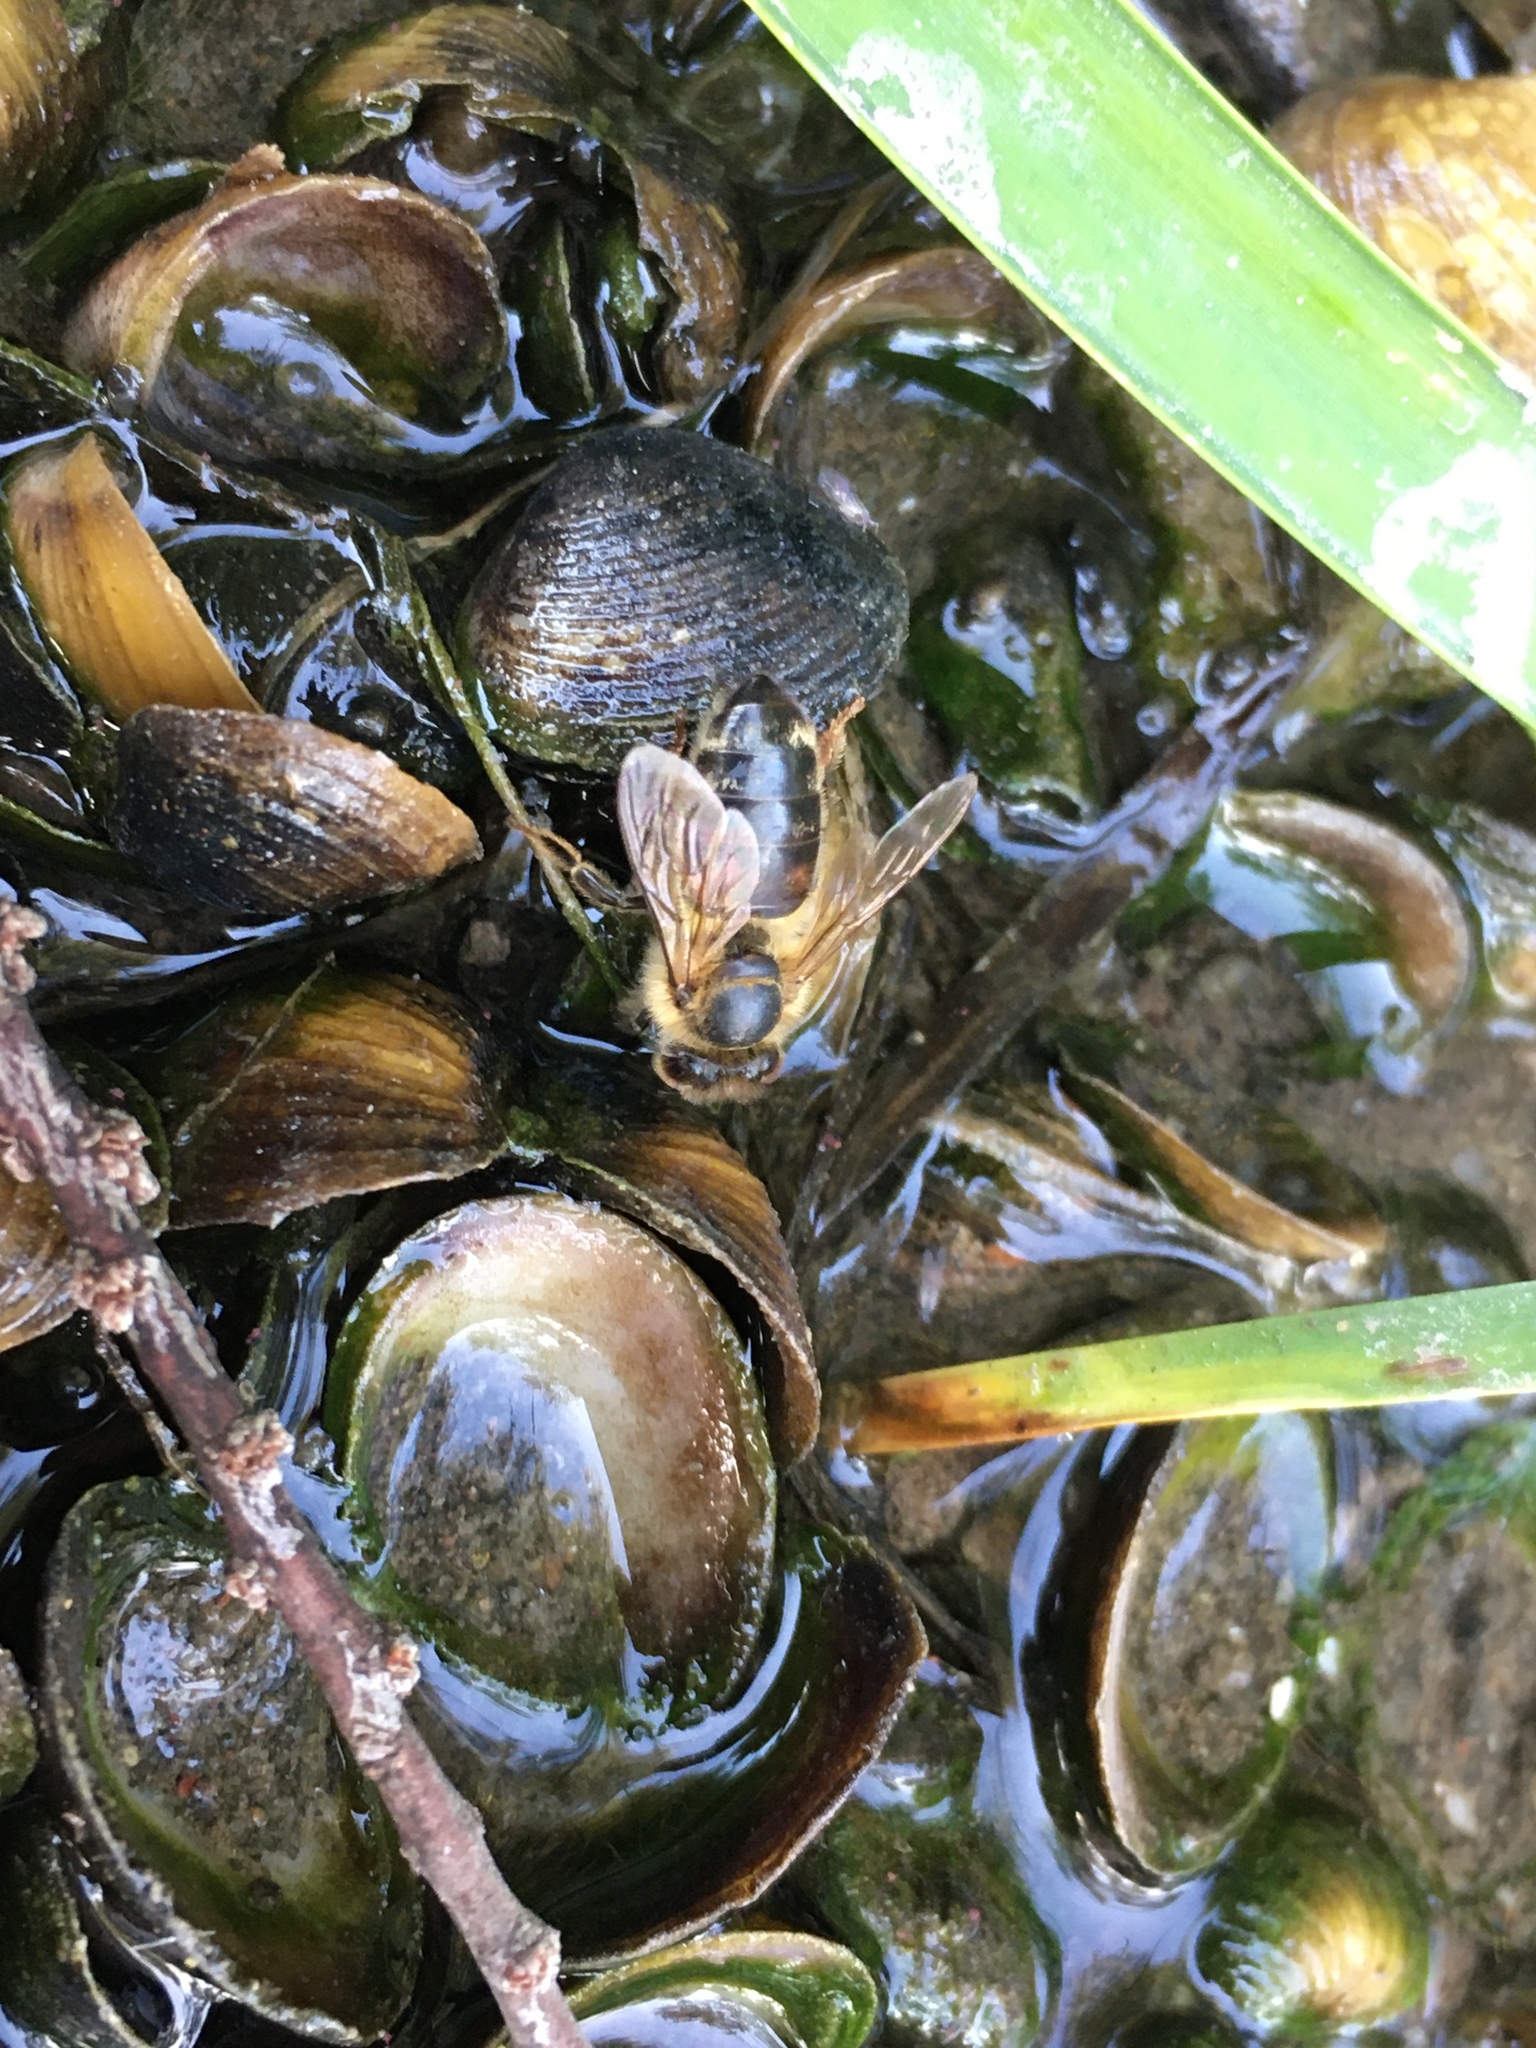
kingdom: Animalia
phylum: Arthropoda
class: Insecta
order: Hymenoptera
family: Apidae
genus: Apis
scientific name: Apis mellifera
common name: Honey bee
